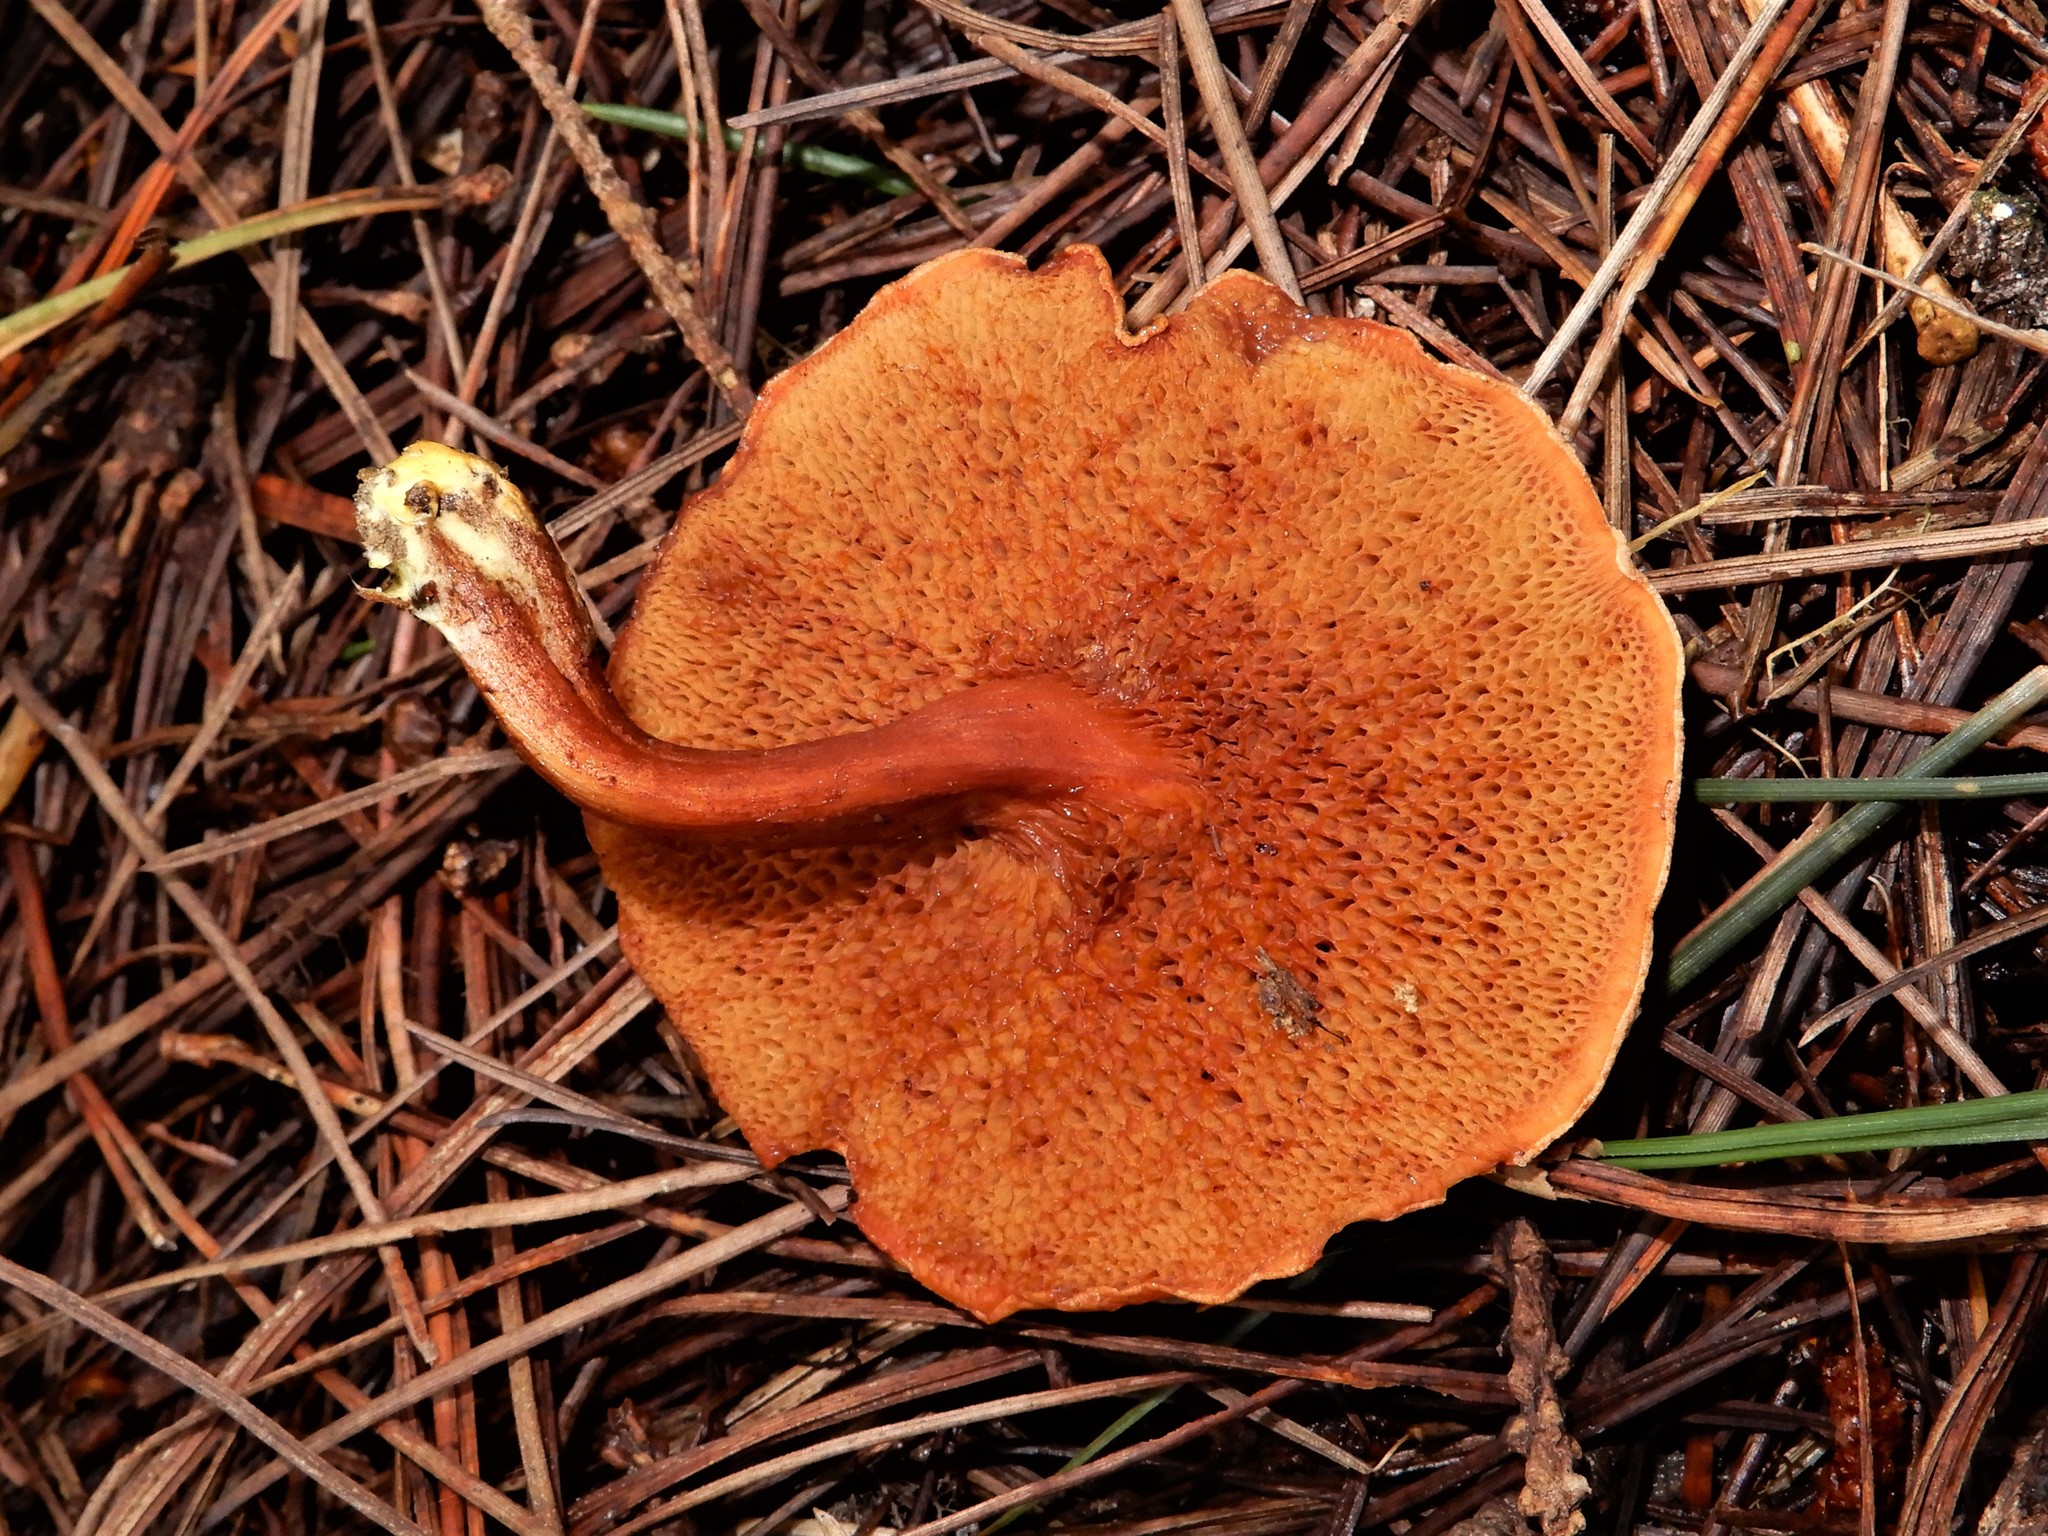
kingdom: Fungi
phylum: Basidiomycota
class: Agaricomycetes
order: Boletales
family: Boletaceae
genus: Chalciporus
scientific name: Chalciporus piperatus
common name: Peppery bolete
